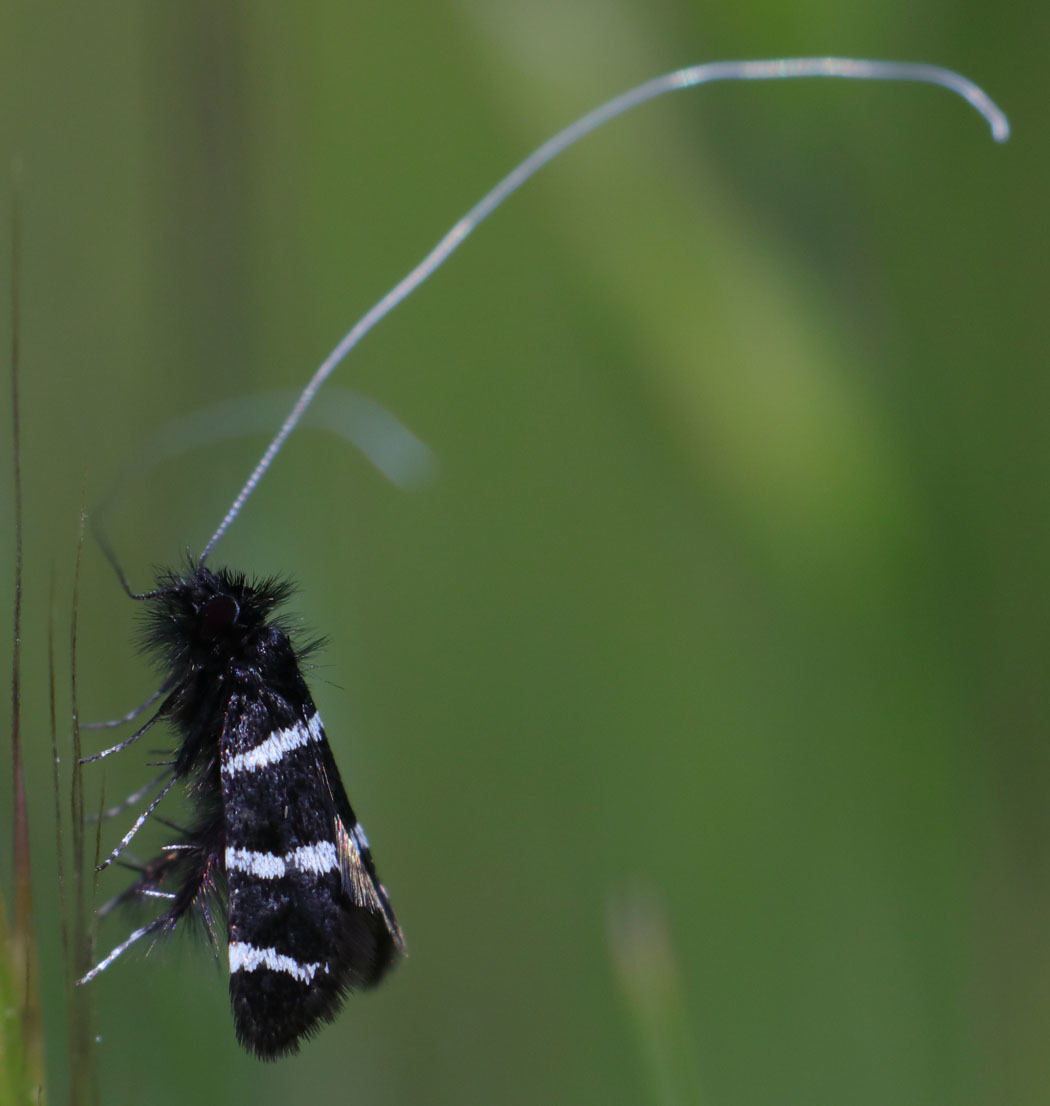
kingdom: Animalia
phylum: Arthropoda
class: Insecta
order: Lepidoptera
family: Adelidae
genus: Adela
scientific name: Adela trigrapha
